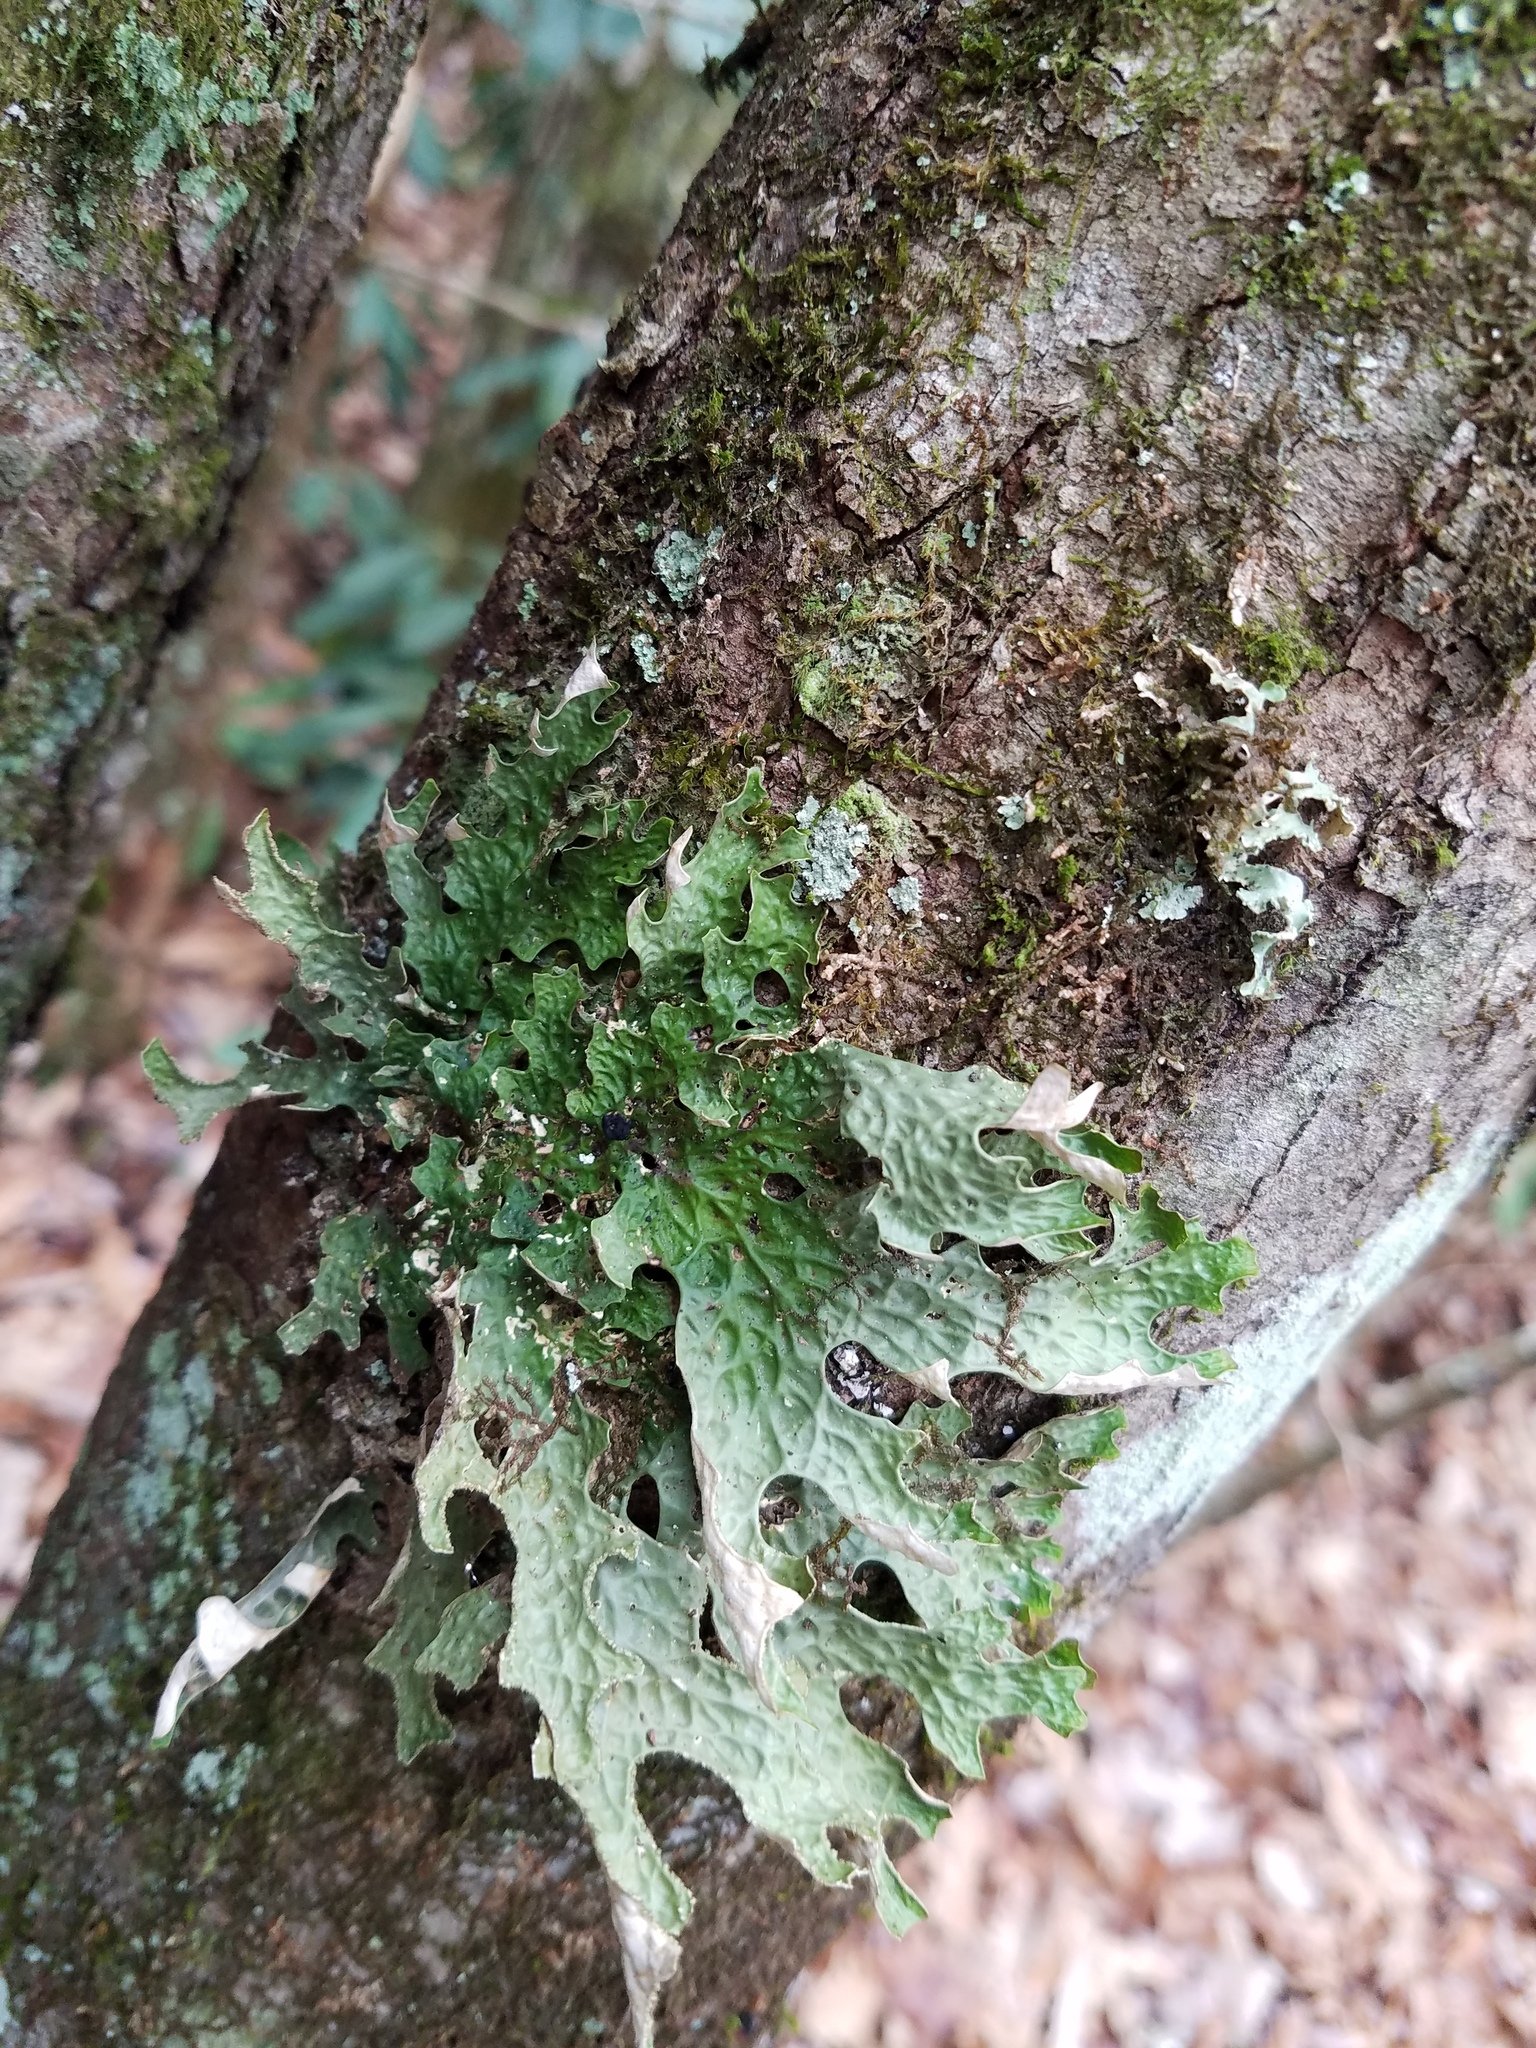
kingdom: Fungi
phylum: Ascomycota
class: Lecanoromycetes
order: Peltigerales
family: Lobariaceae
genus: Lobaria
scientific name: Lobaria pulmonaria
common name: Lungwort
